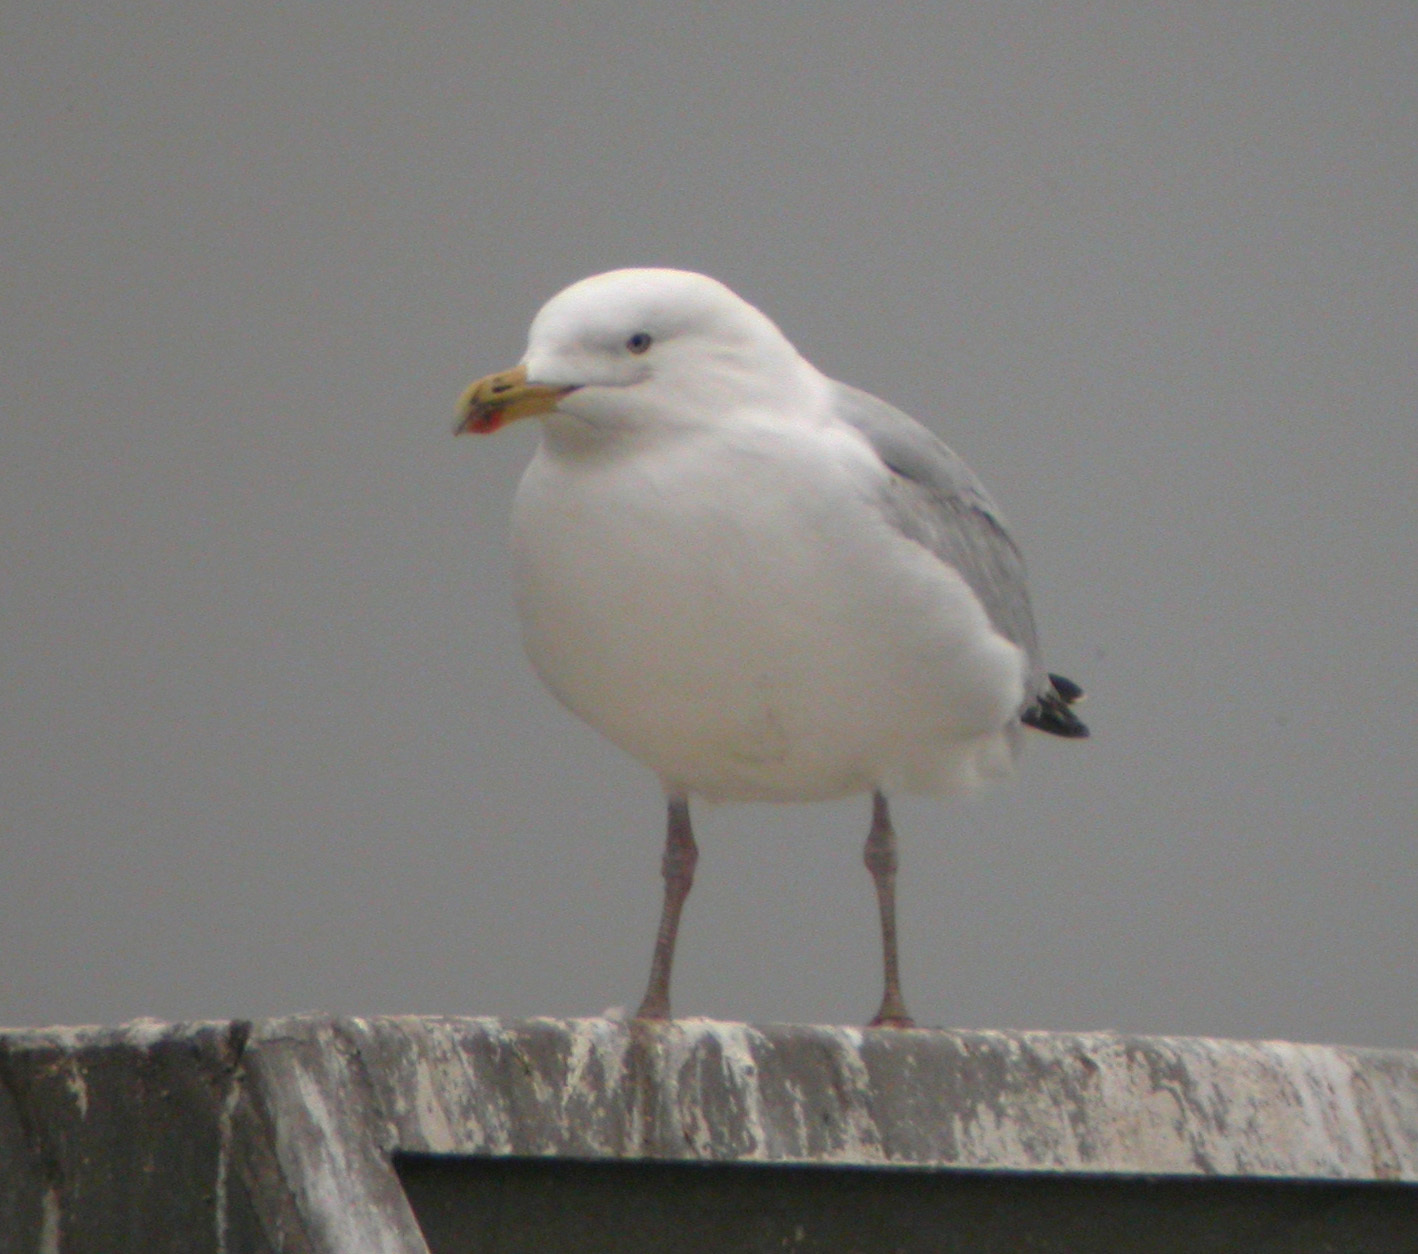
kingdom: Animalia
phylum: Chordata
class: Aves
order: Charadriiformes
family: Laridae
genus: Larus
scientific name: Larus argentatus
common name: Herring gull
